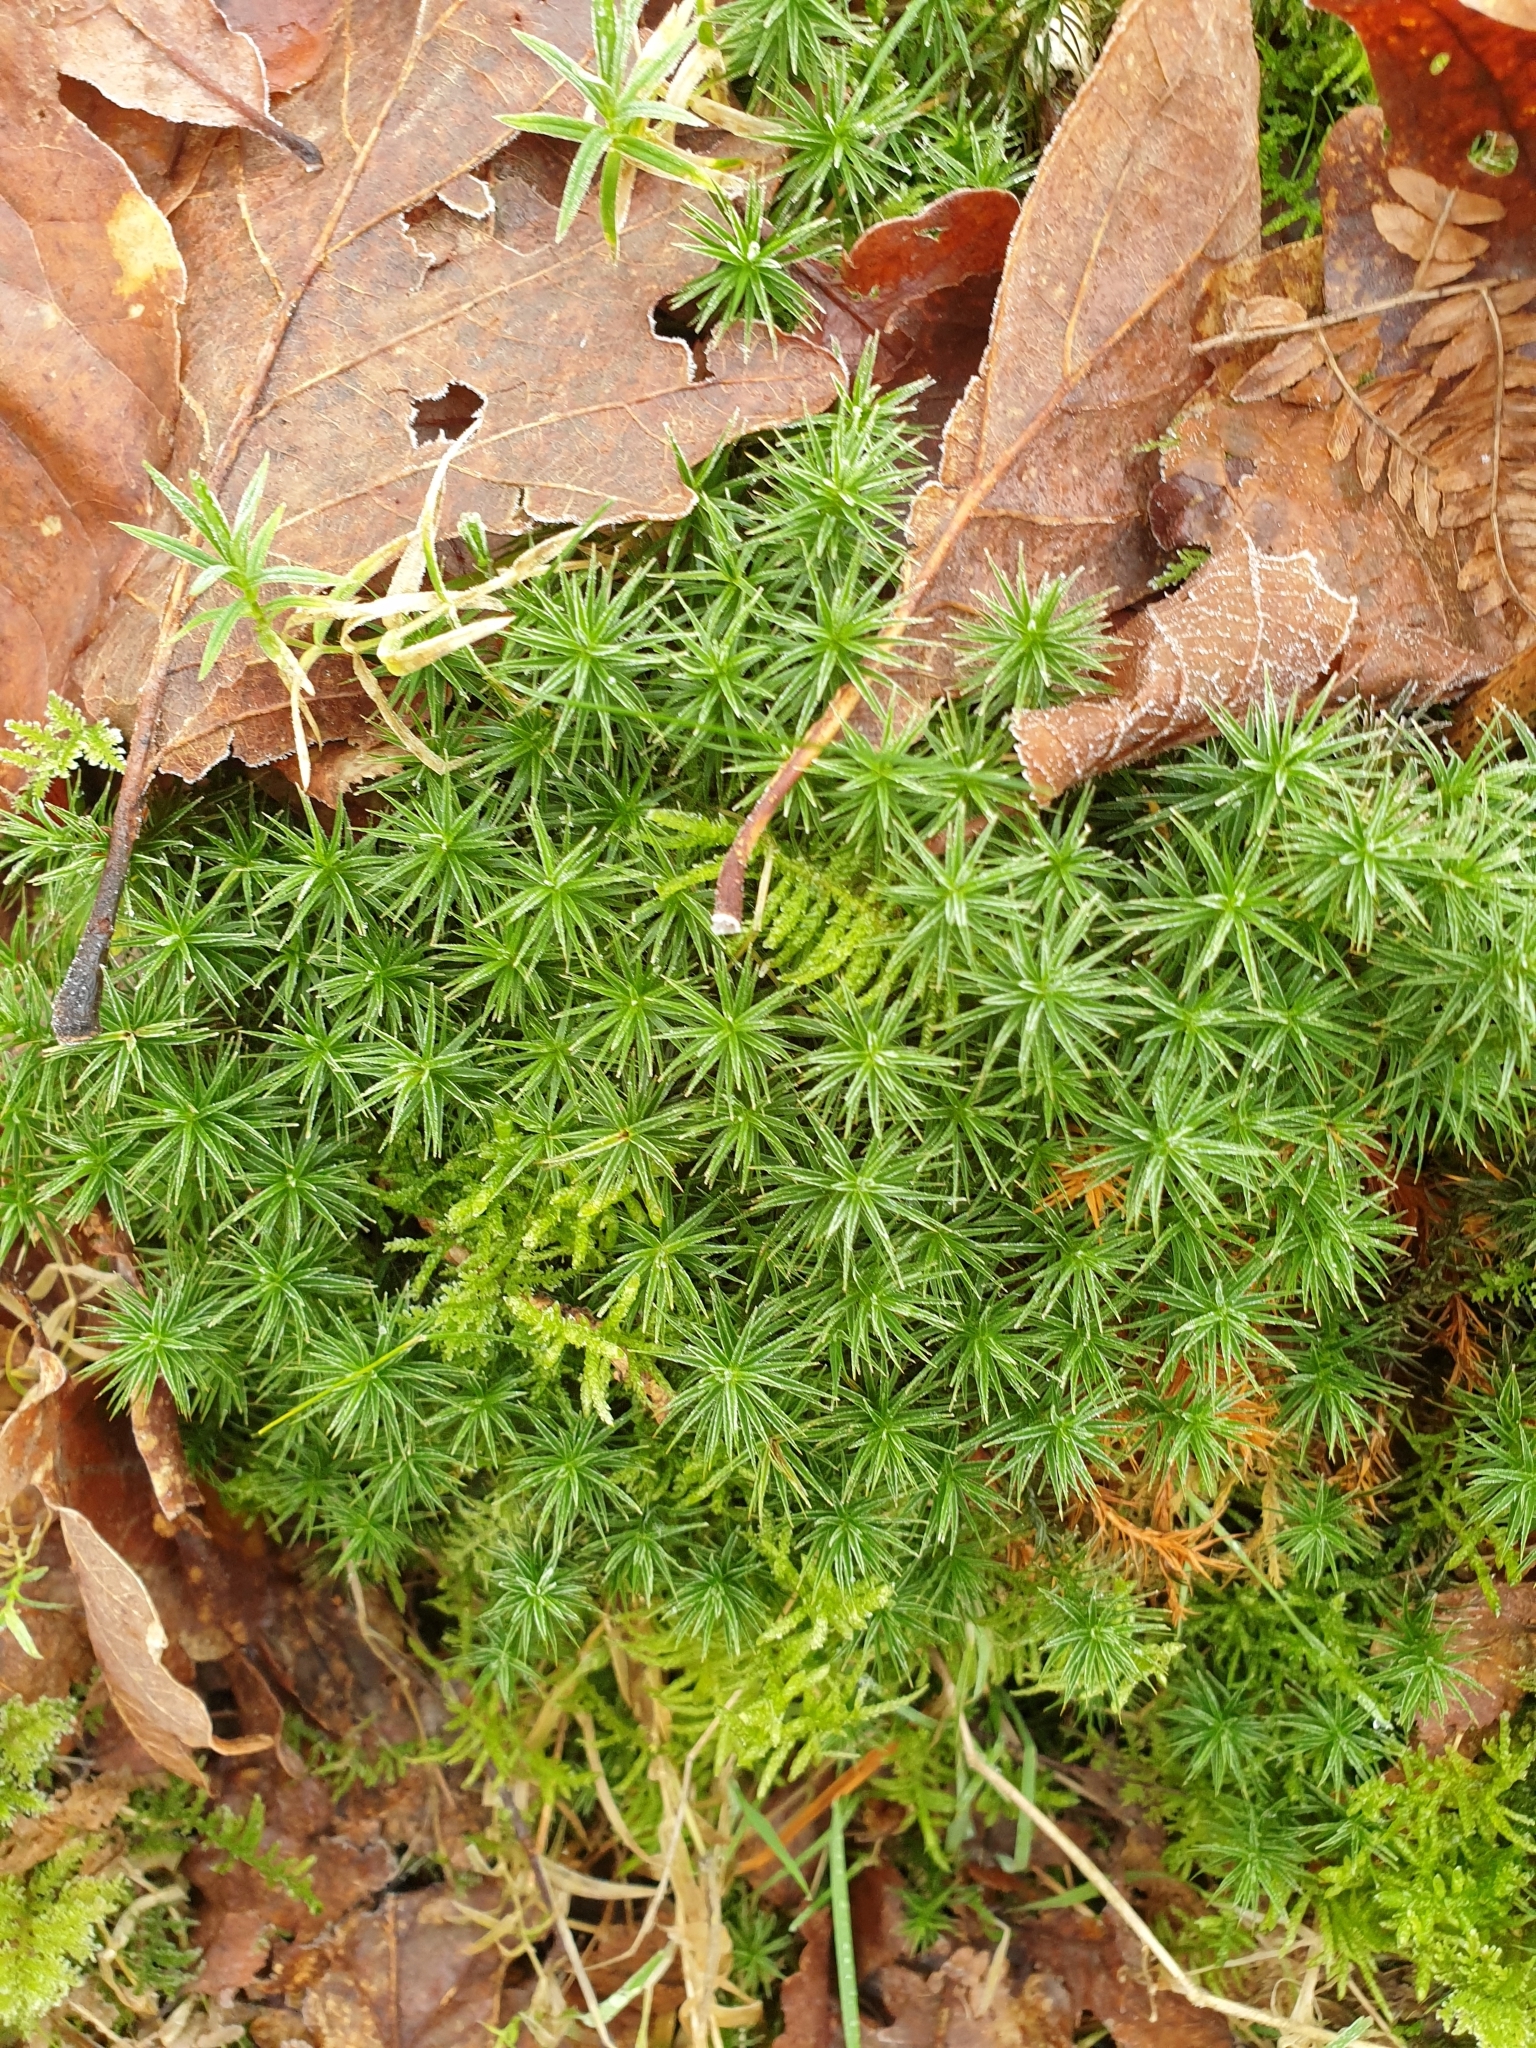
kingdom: Plantae
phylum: Bryophyta
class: Polytrichopsida
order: Polytrichales
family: Polytrichaceae
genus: Polytrichum
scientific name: Polytrichum formosum
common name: Bank haircap moss
